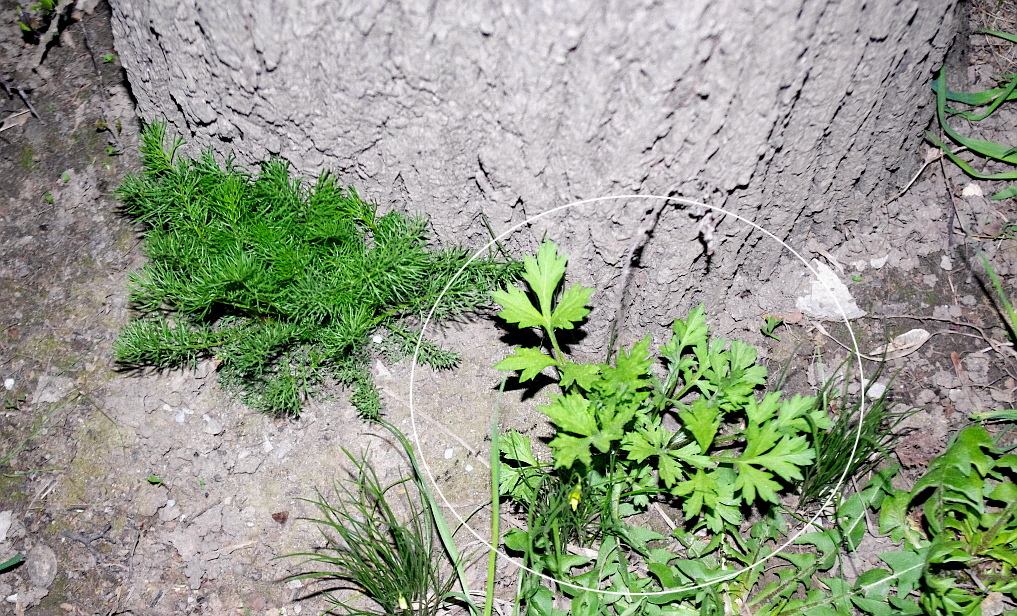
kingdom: Plantae
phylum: Tracheophyta
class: Magnoliopsida
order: Asterales
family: Asteraceae
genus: Artemisia
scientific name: Artemisia vulgaris
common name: Mugwort
